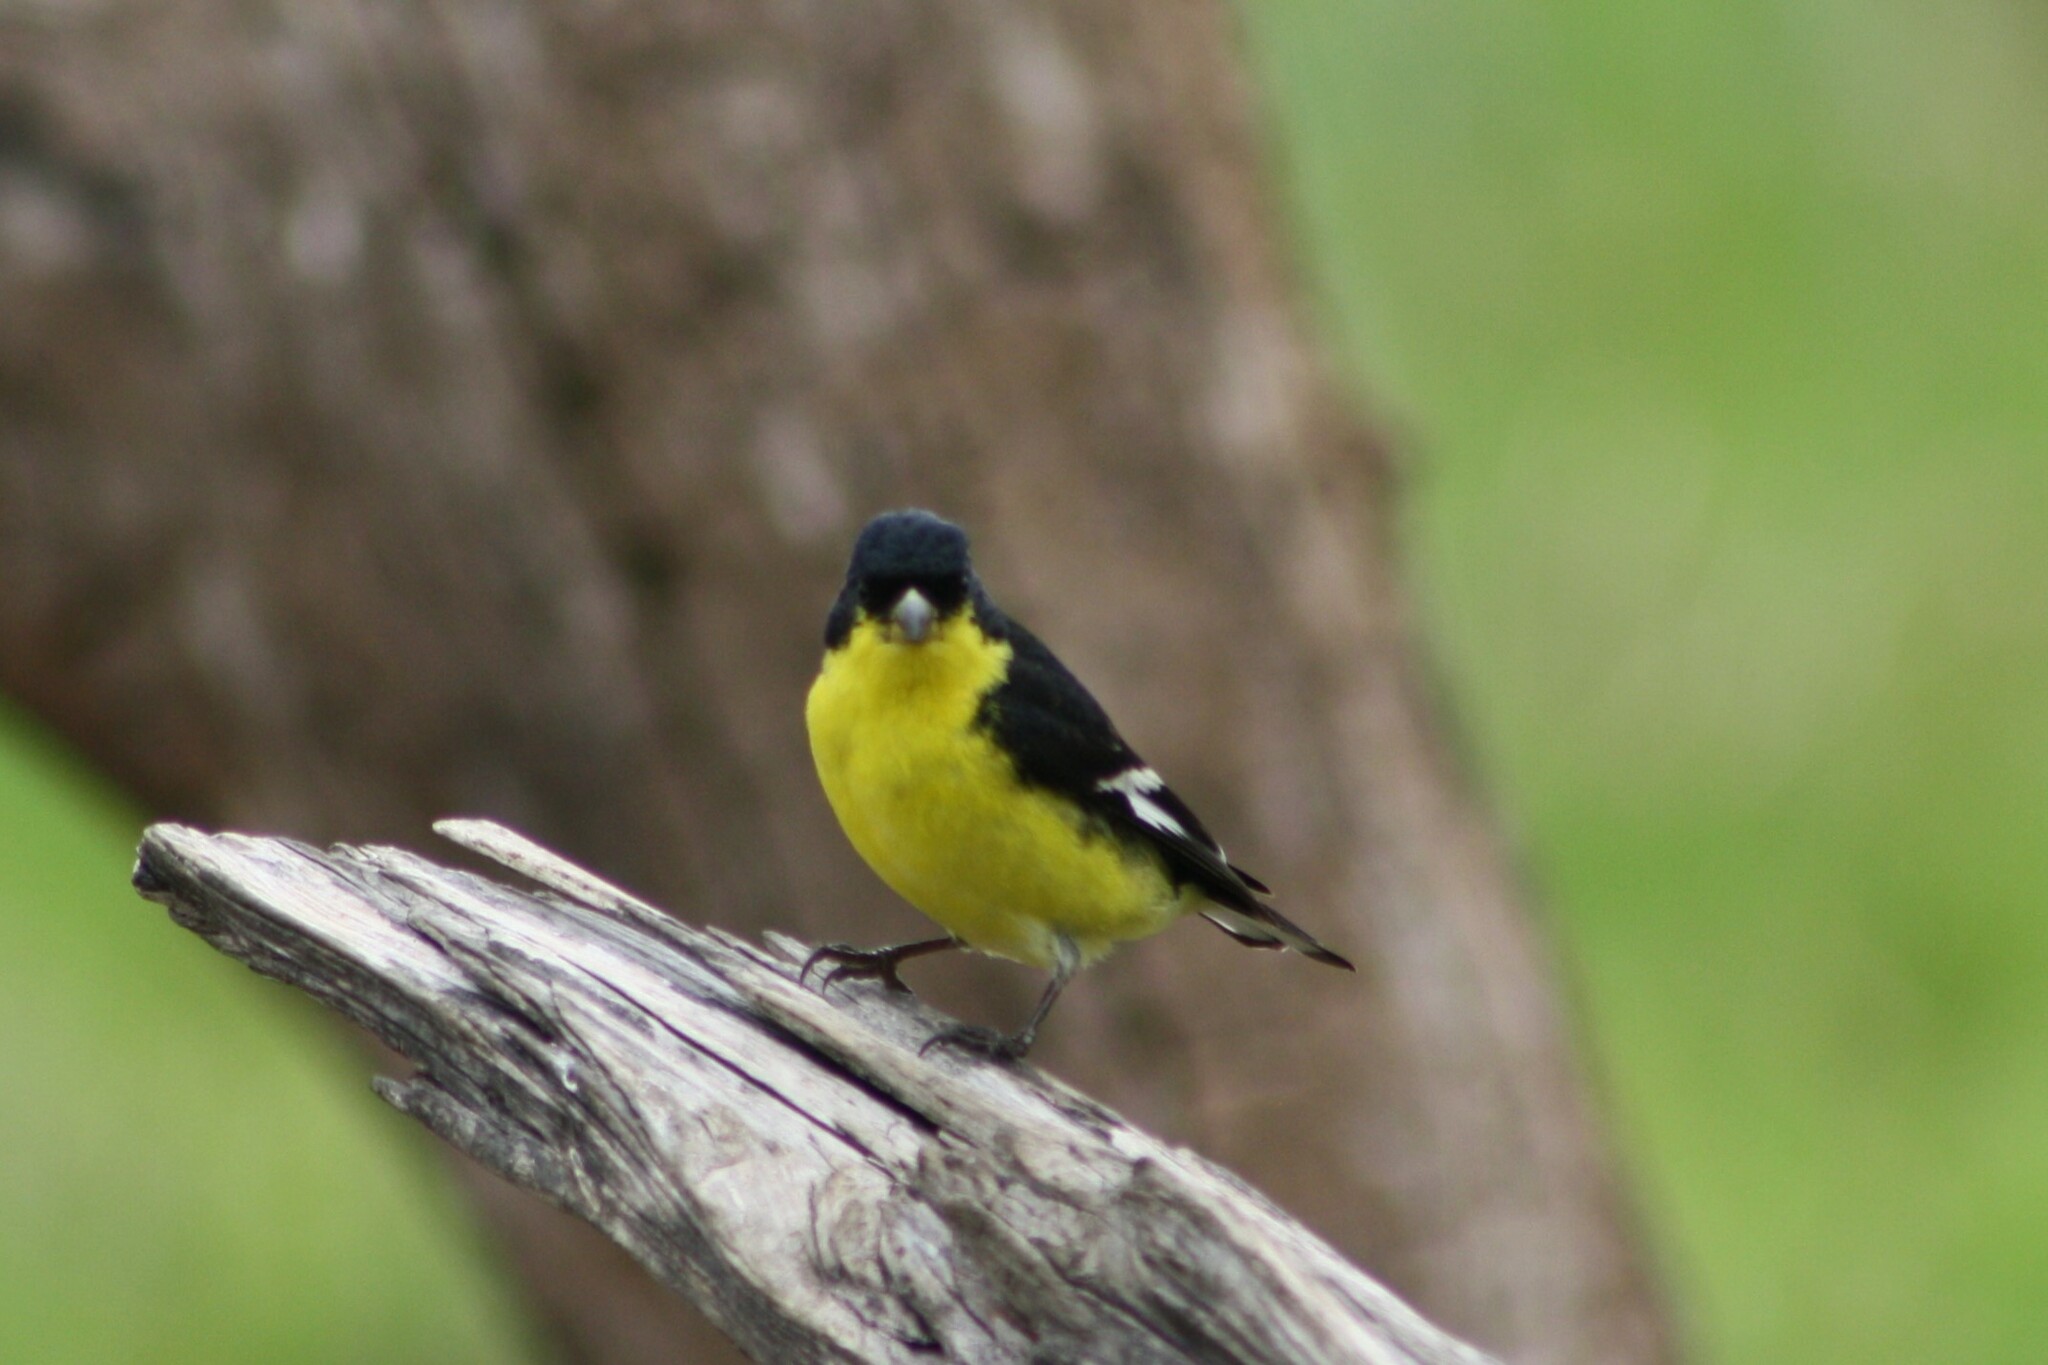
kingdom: Animalia
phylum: Chordata
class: Aves
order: Passeriformes
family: Fringillidae
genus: Spinus
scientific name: Spinus psaltria
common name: Lesser goldfinch
